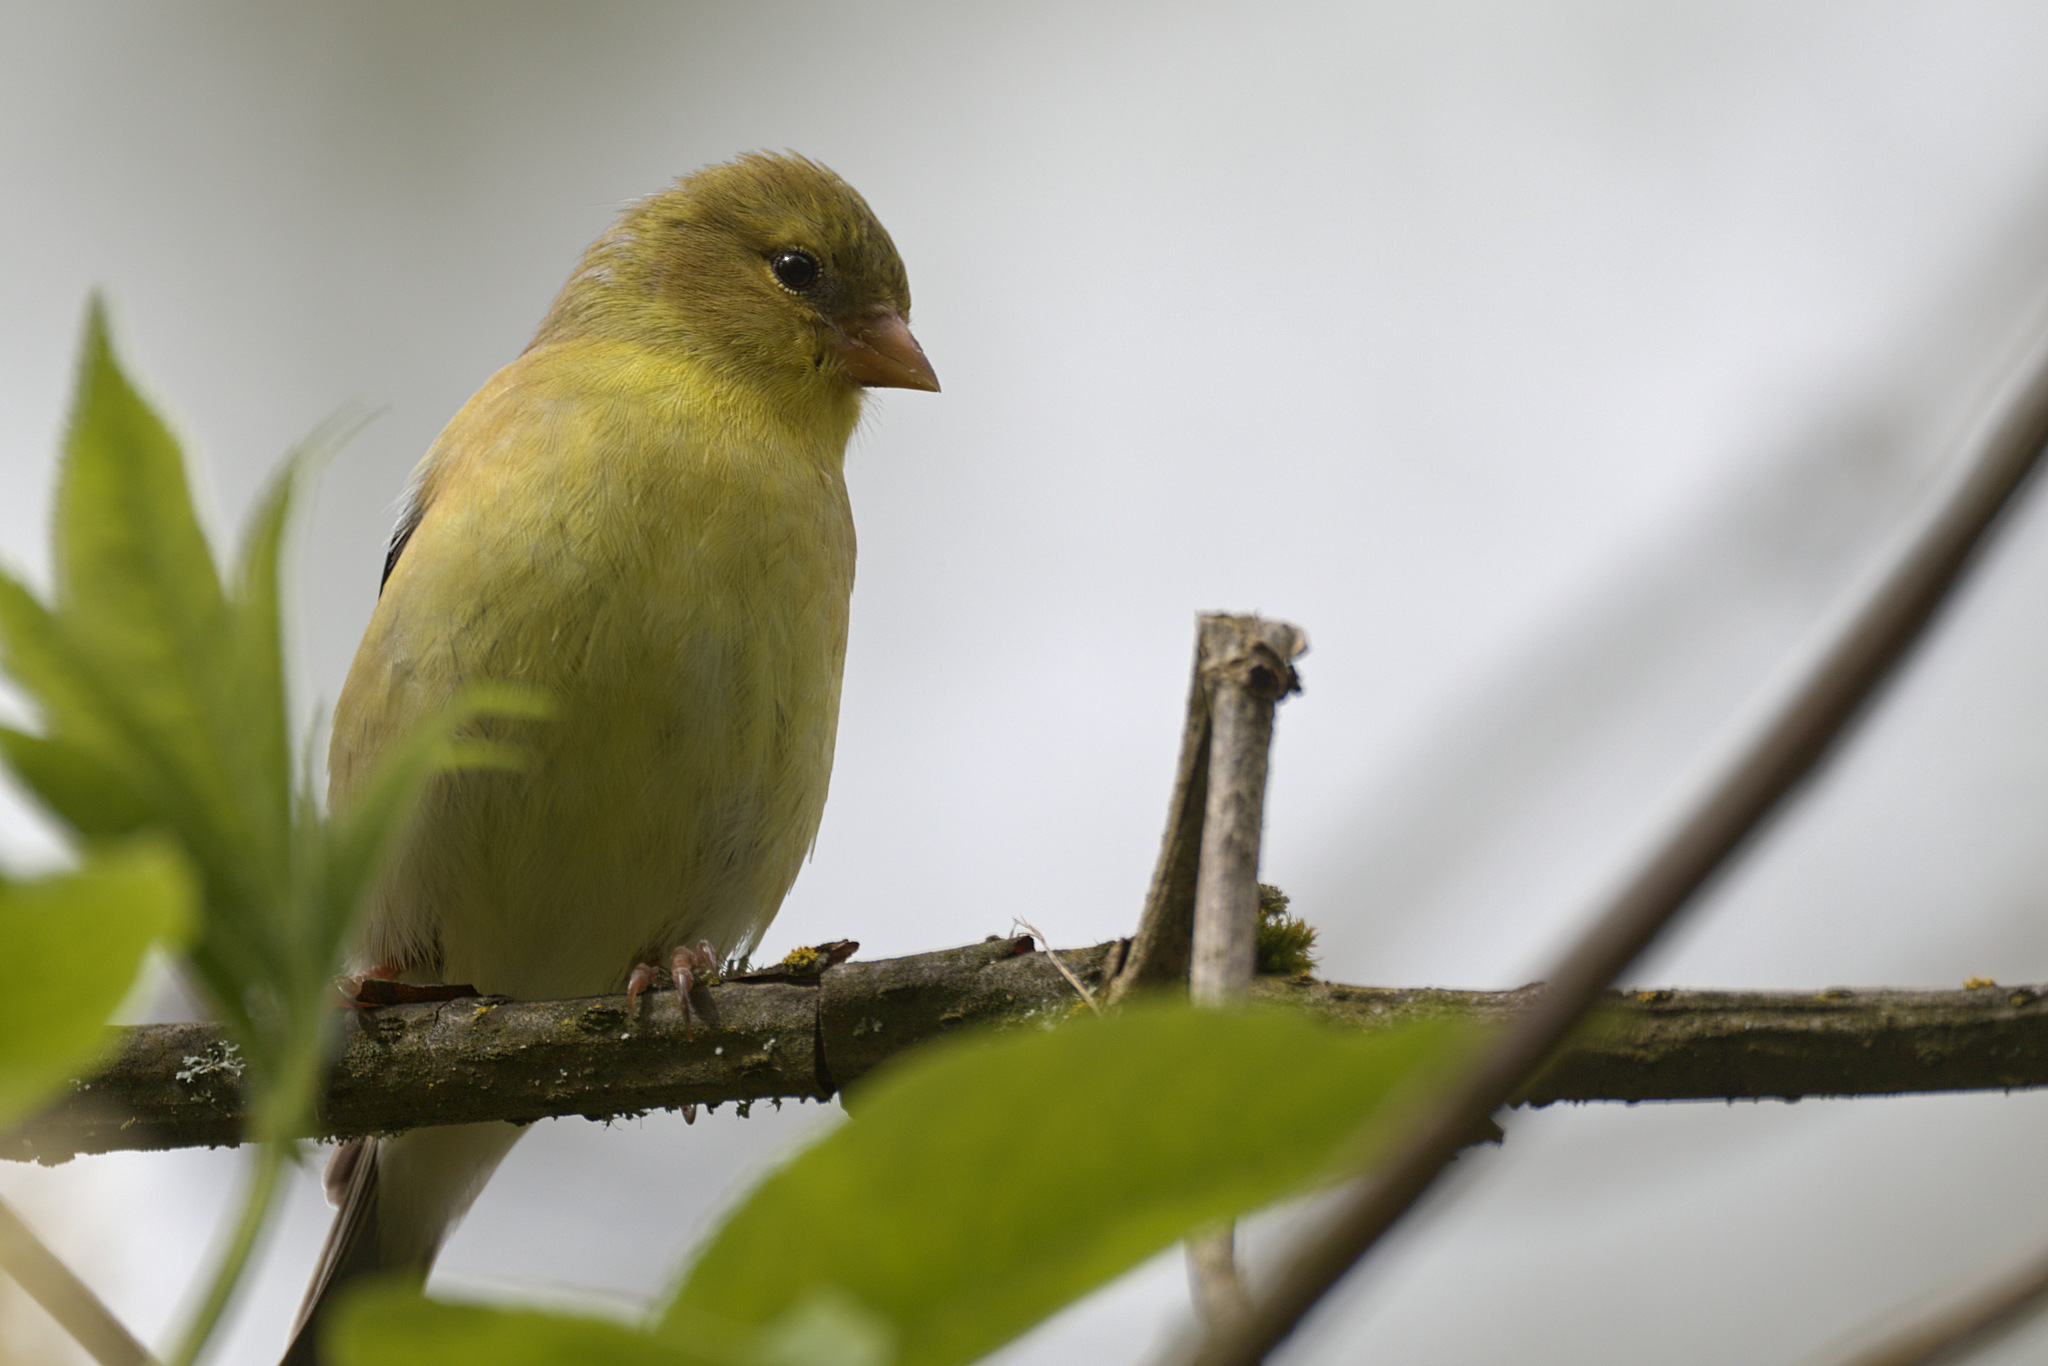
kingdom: Animalia
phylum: Chordata
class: Aves
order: Passeriformes
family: Fringillidae
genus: Spinus
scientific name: Spinus tristis
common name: American goldfinch
